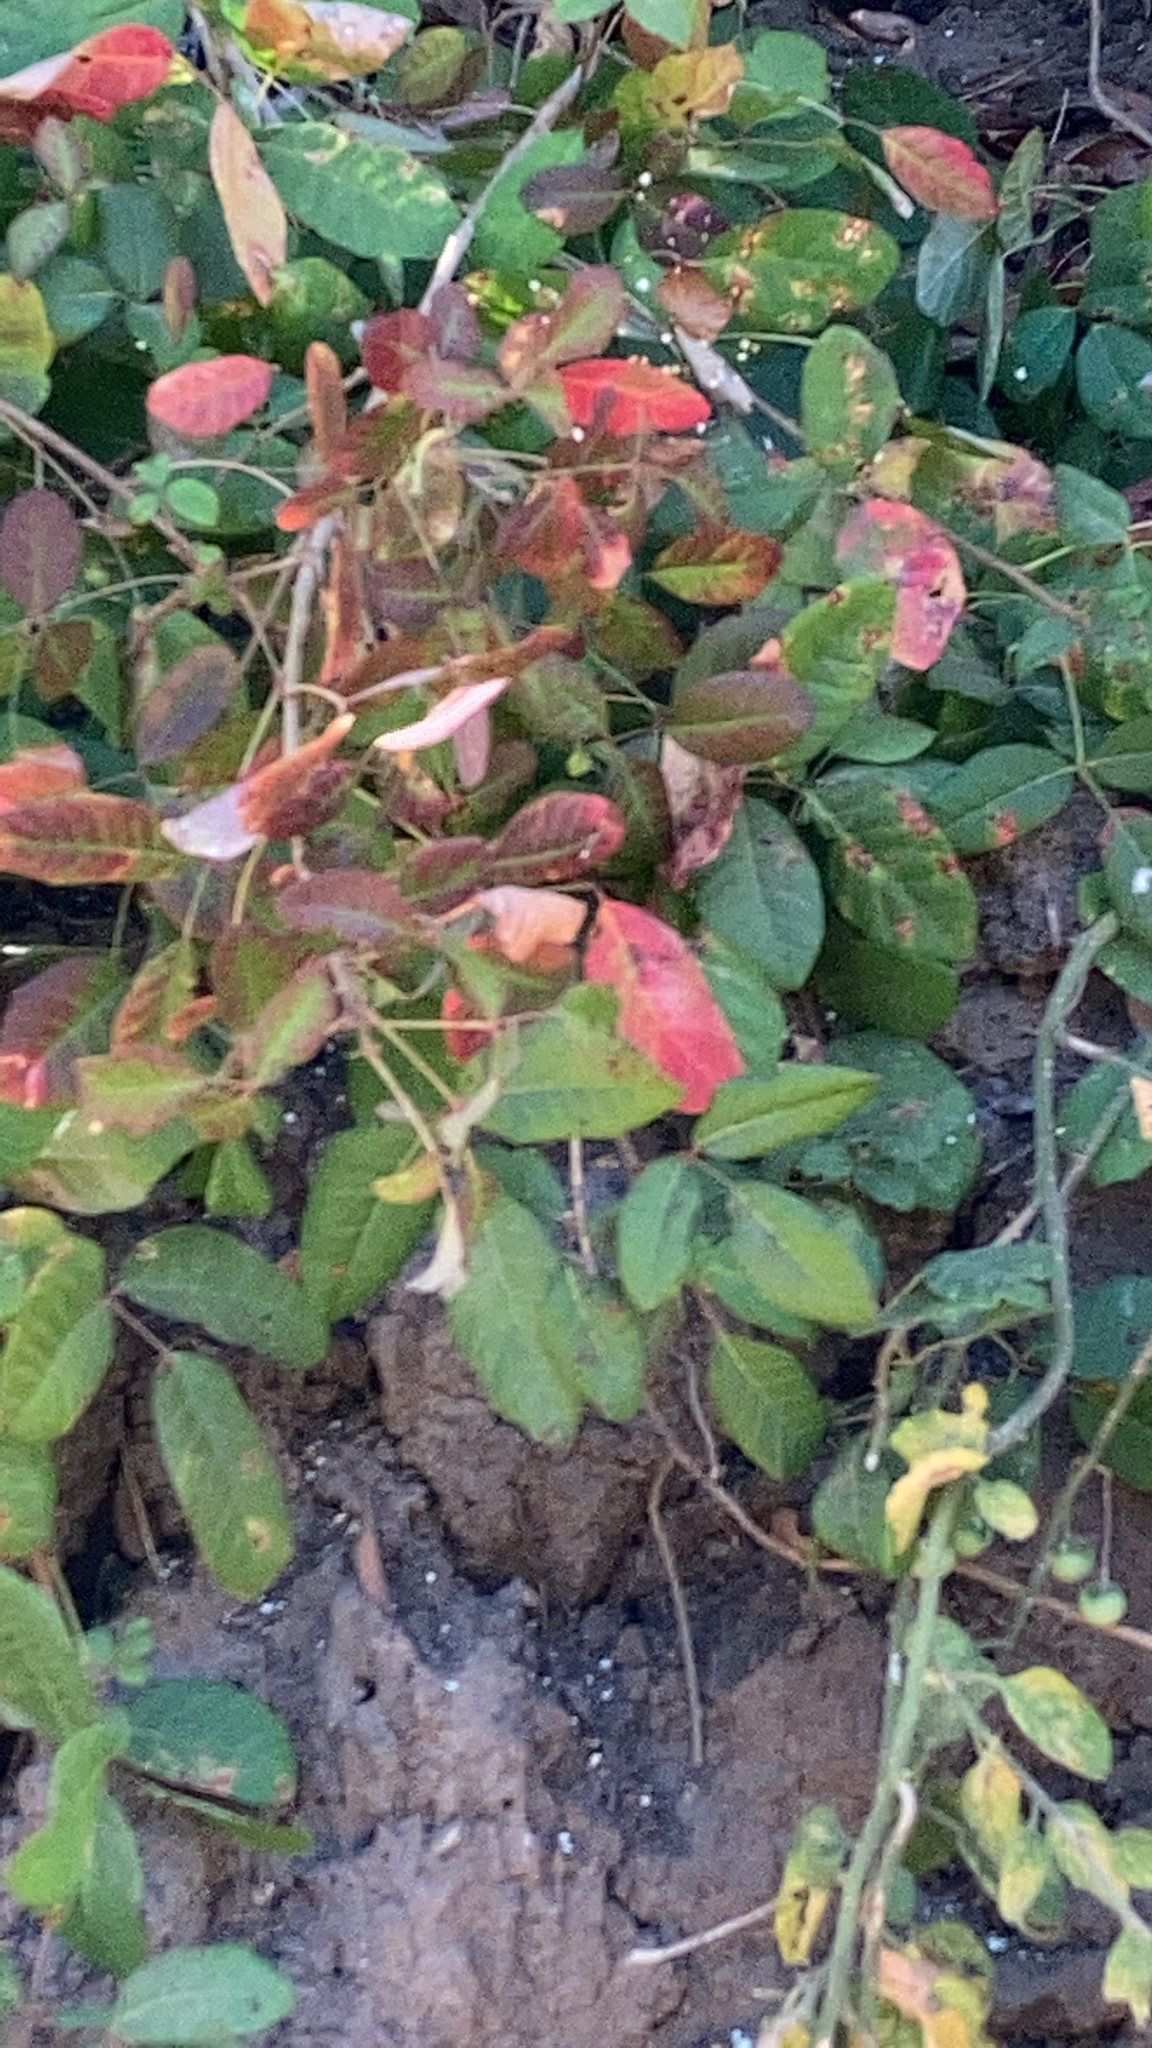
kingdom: Plantae
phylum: Tracheophyta
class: Magnoliopsida
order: Sapindales
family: Anacardiaceae
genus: Toxicodendron
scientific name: Toxicodendron diversilobum
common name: Pacific poison-oak
